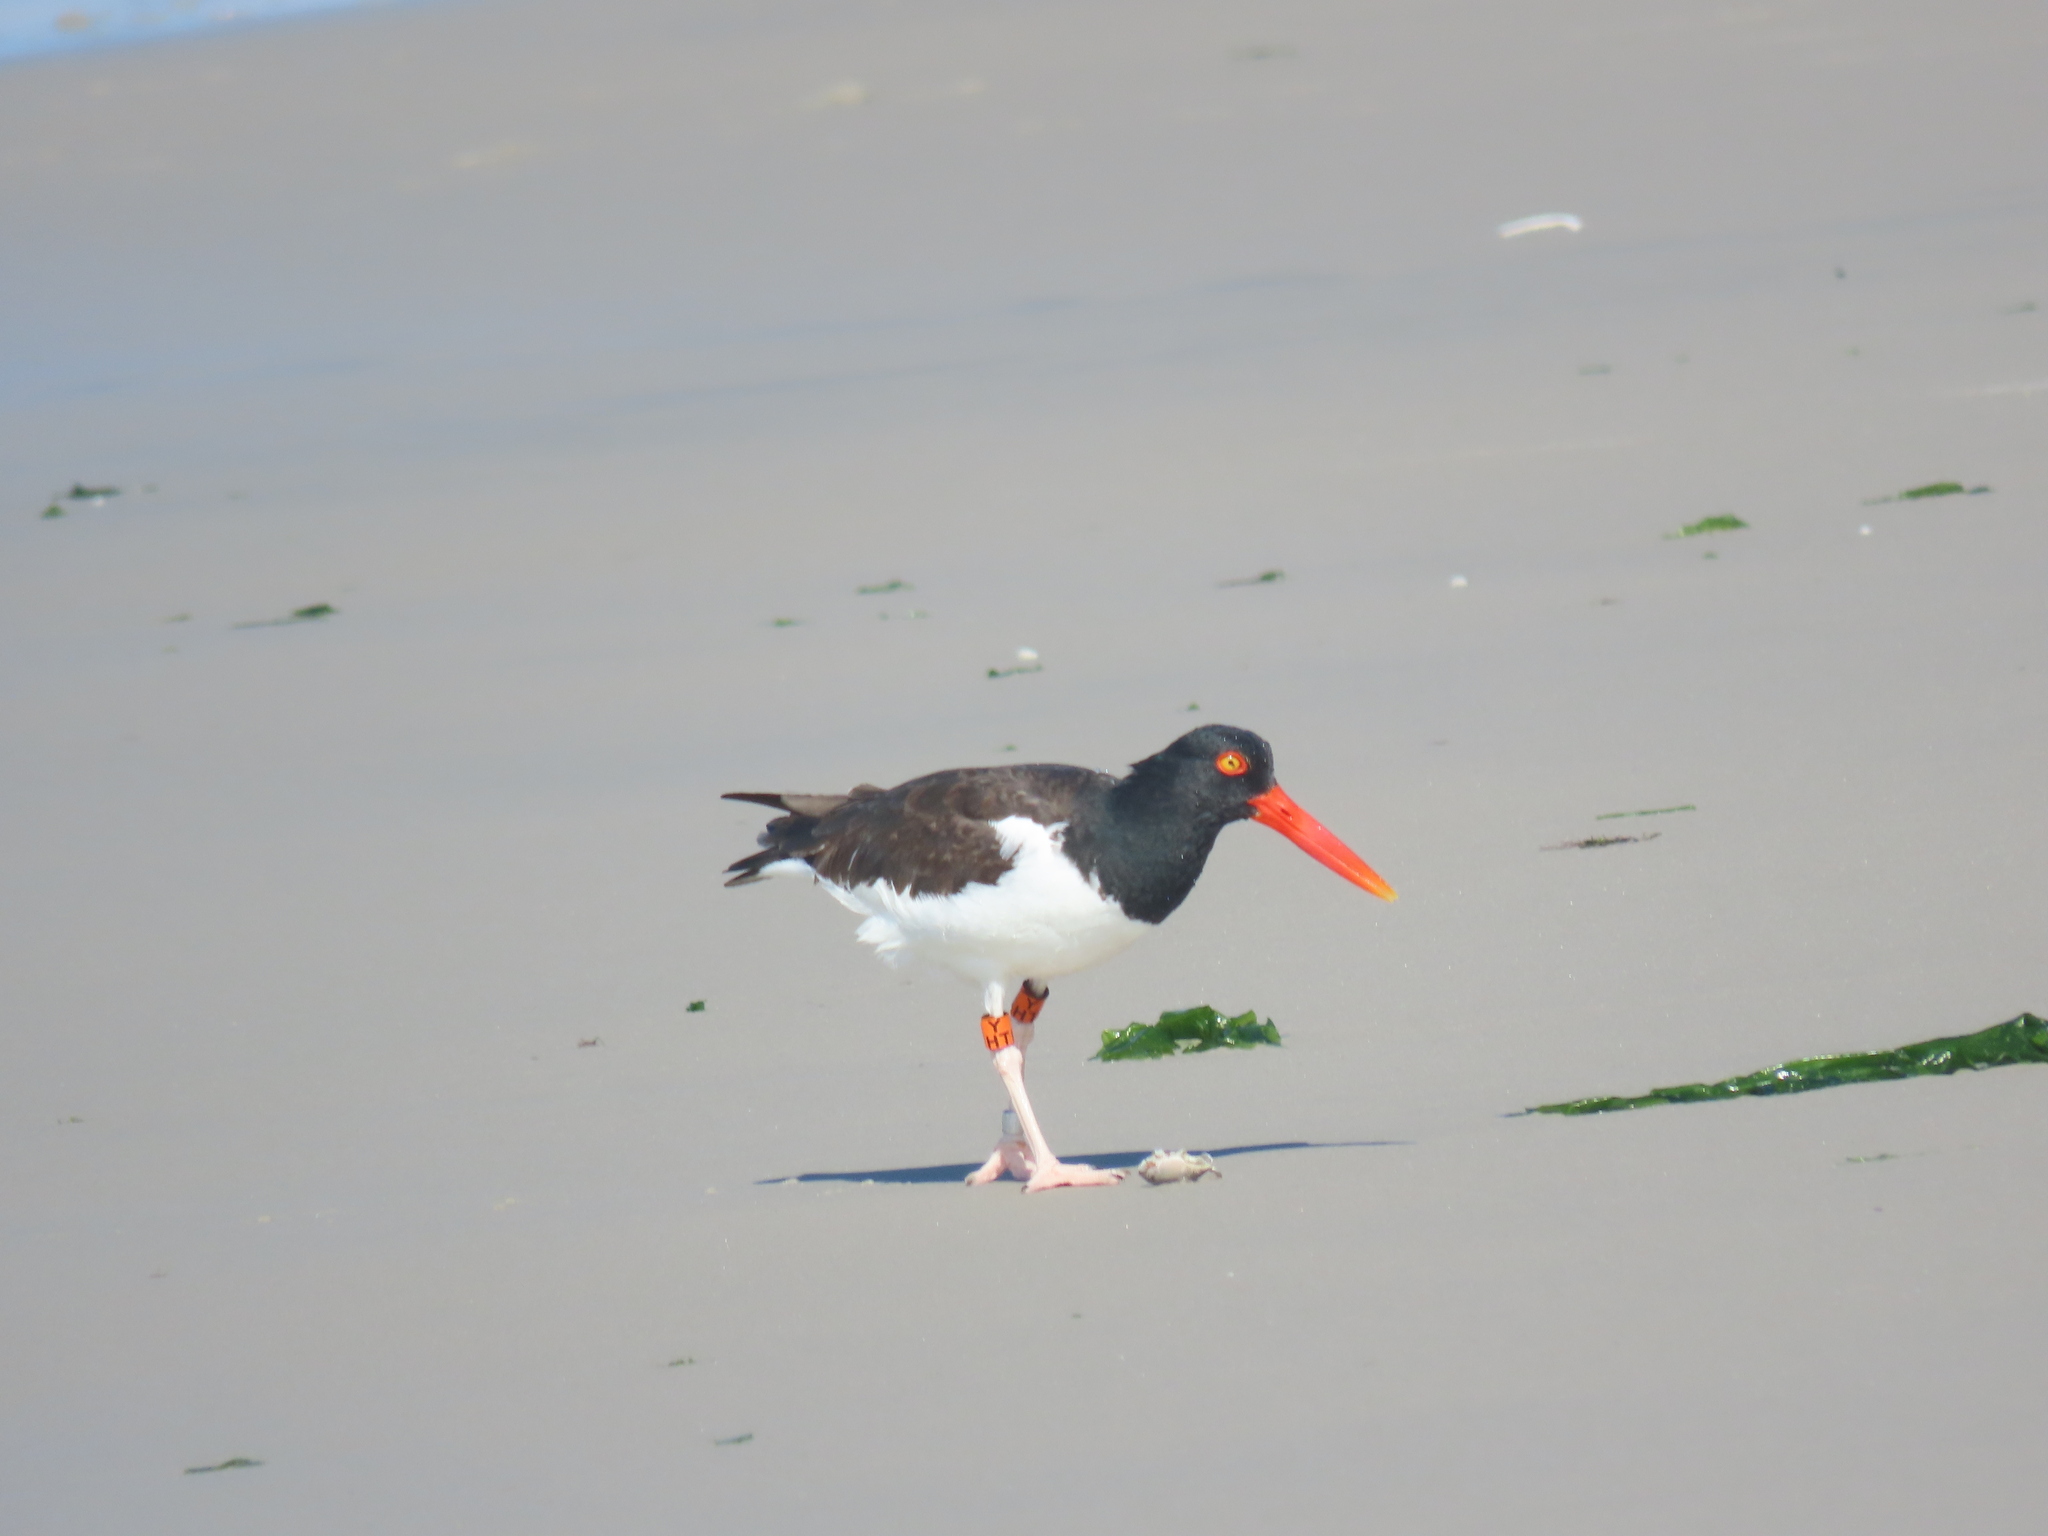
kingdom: Animalia
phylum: Chordata
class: Aves
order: Charadriiformes
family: Haematopodidae
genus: Haematopus
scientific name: Haematopus palliatus
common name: American oystercatcher
